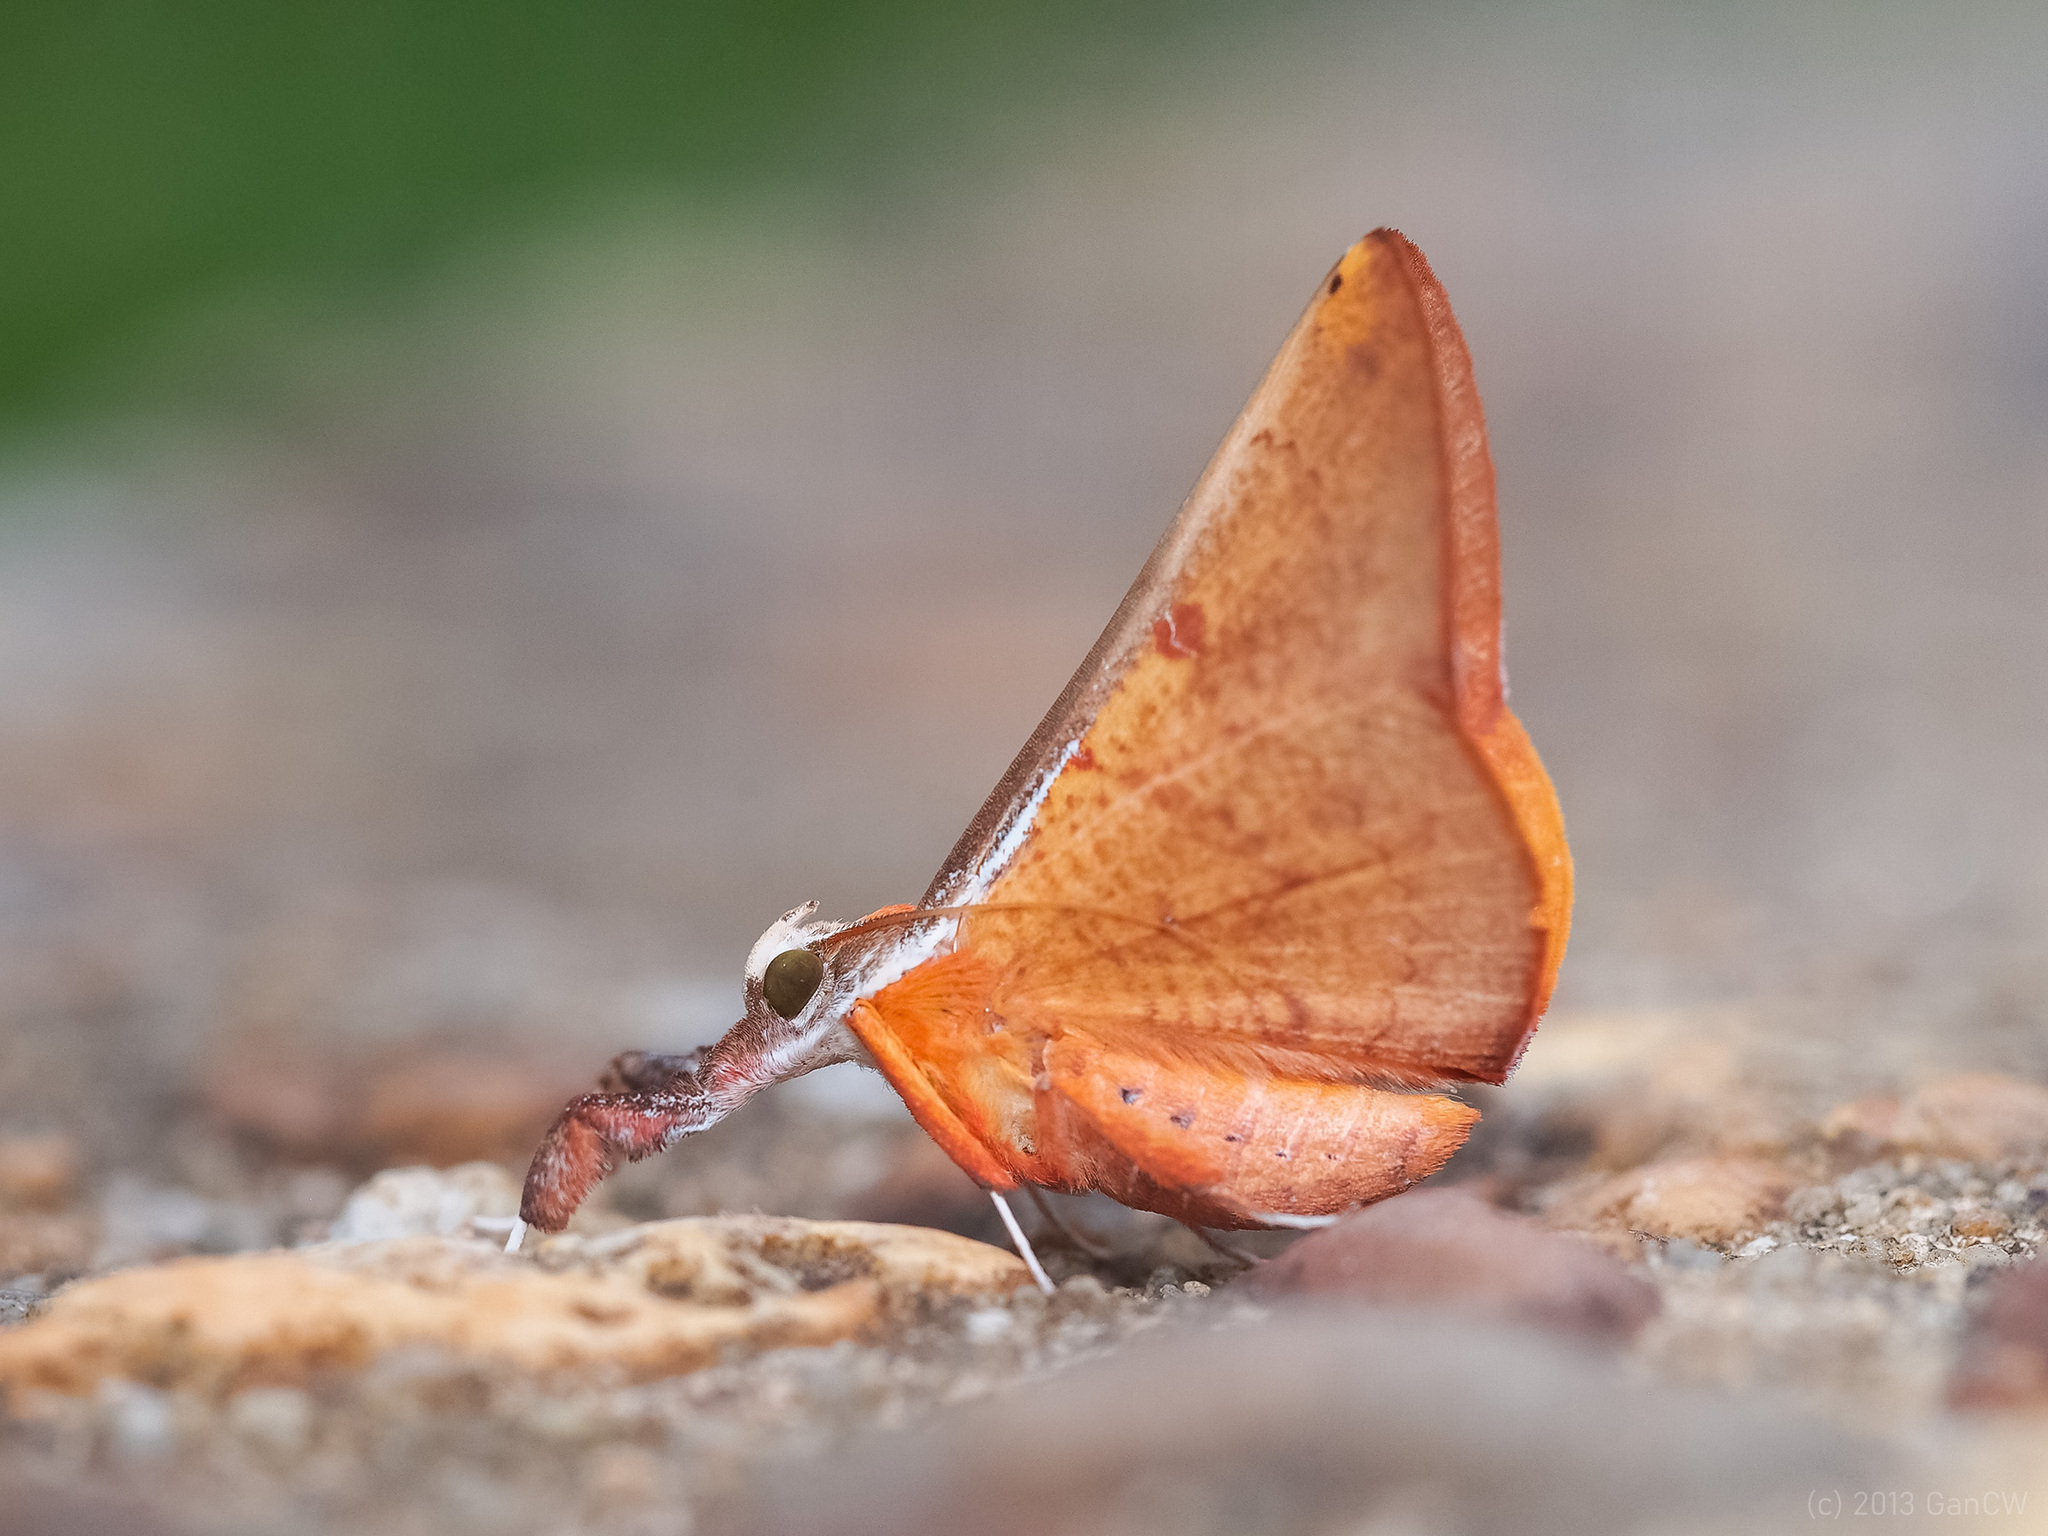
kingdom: Animalia
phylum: Arthropoda
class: Insecta
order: Lepidoptera
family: Erebidae
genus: Bematha
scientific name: Bematha extensa
